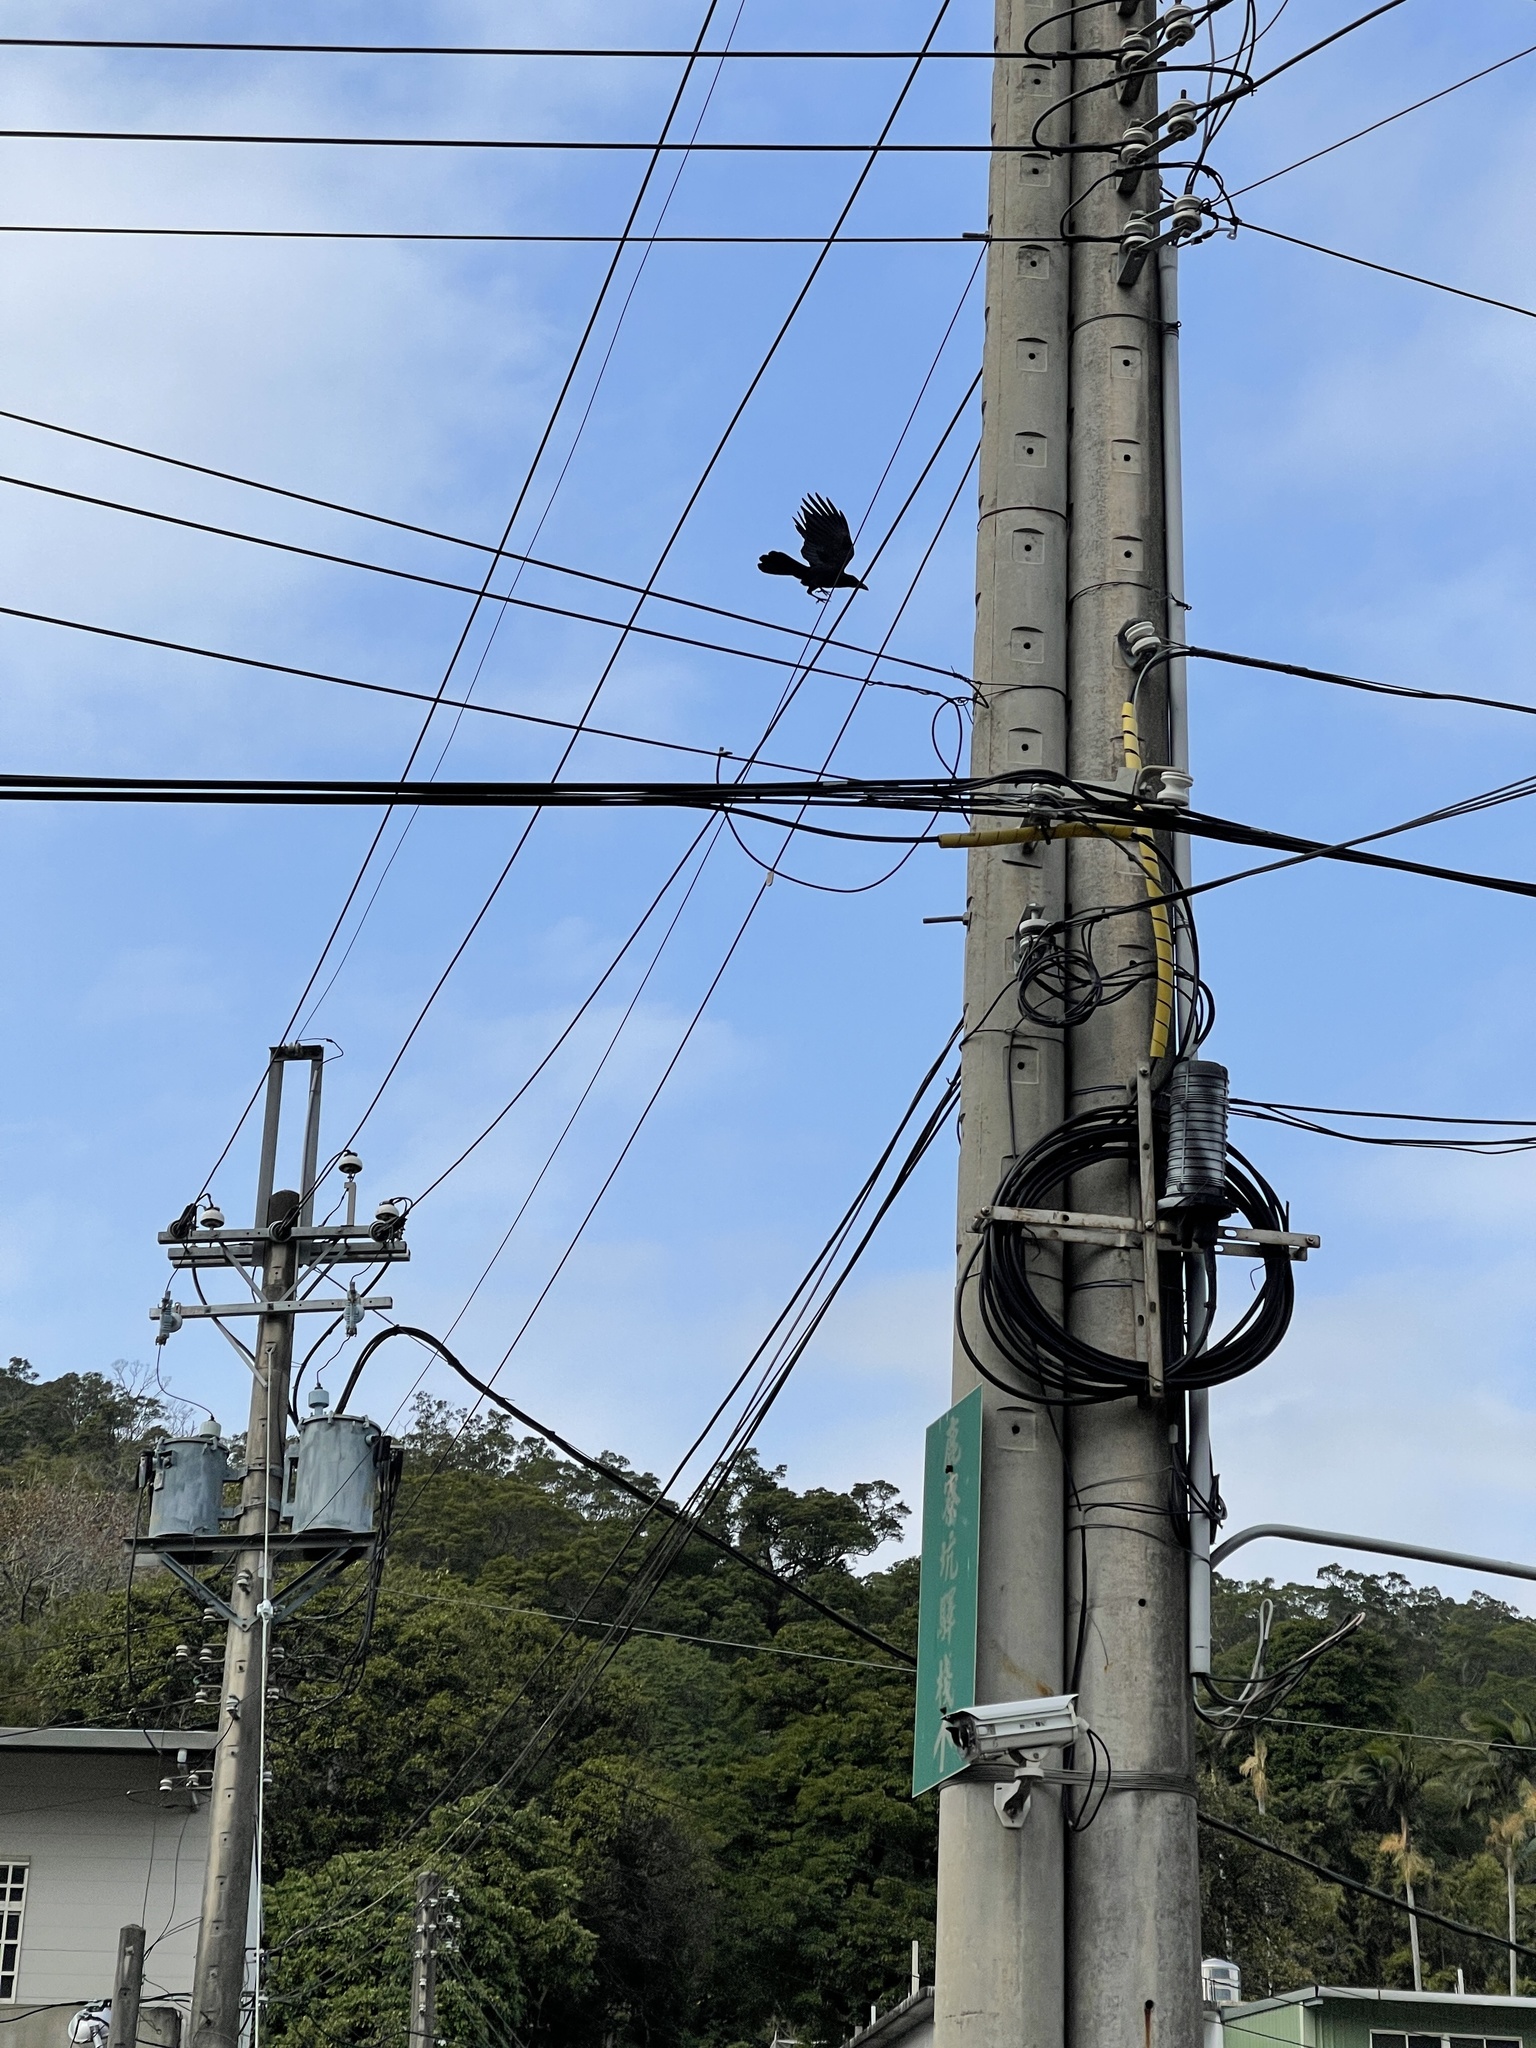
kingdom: Animalia
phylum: Chordata
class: Aves
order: Passeriformes
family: Corvidae
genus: Corvus
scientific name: Corvus macrorhynchos
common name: Large-billed crow
